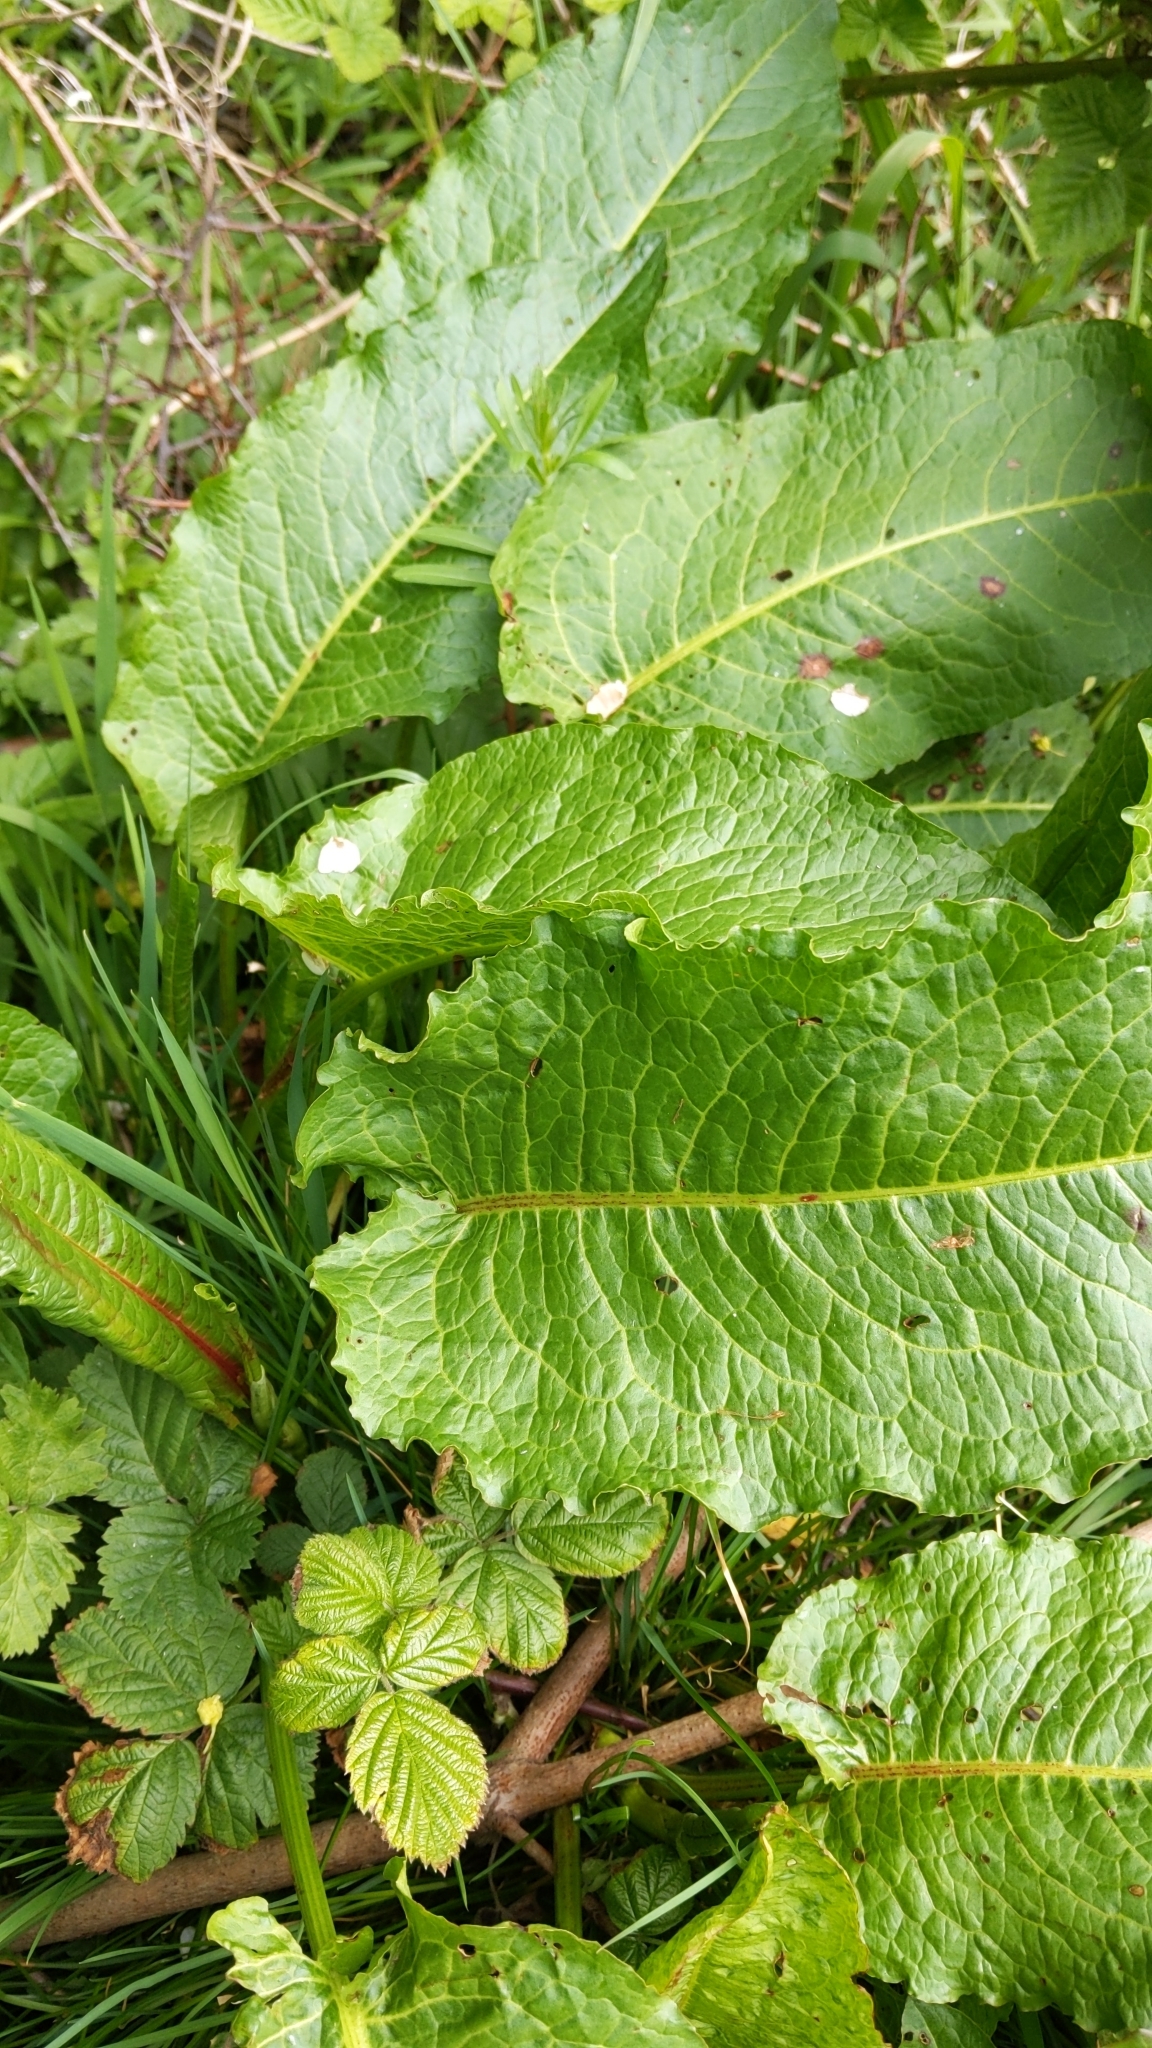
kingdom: Plantae
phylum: Tracheophyta
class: Magnoliopsida
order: Caryophyllales
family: Polygonaceae
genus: Rumex
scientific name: Rumex obtusifolius
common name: Bitter dock
